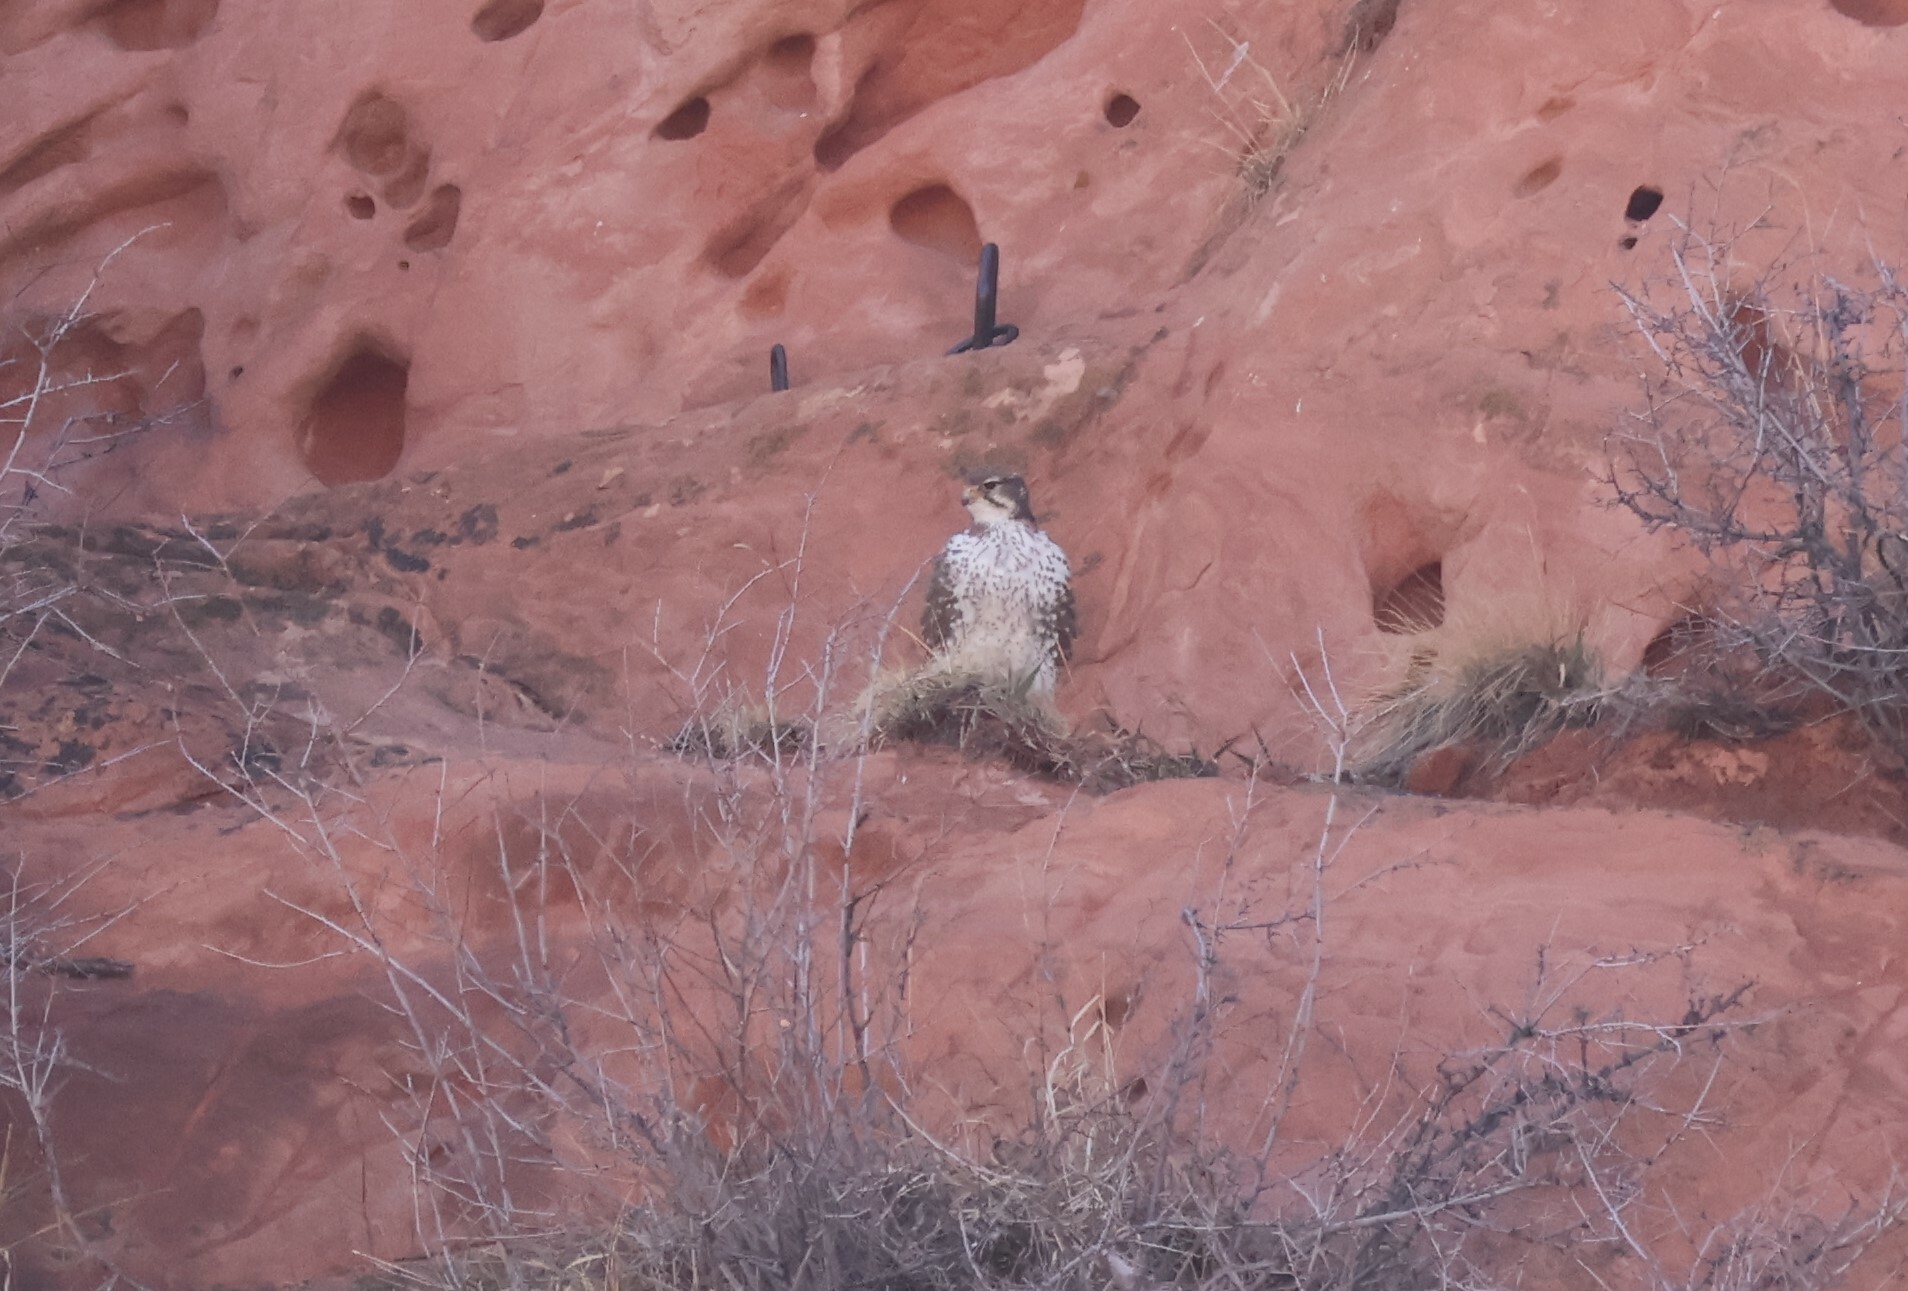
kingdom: Animalia
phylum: Chordata
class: Aves
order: Falconiformes
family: Falconidae
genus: Falco
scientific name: Falco mexicanus
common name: Prairie falcon
